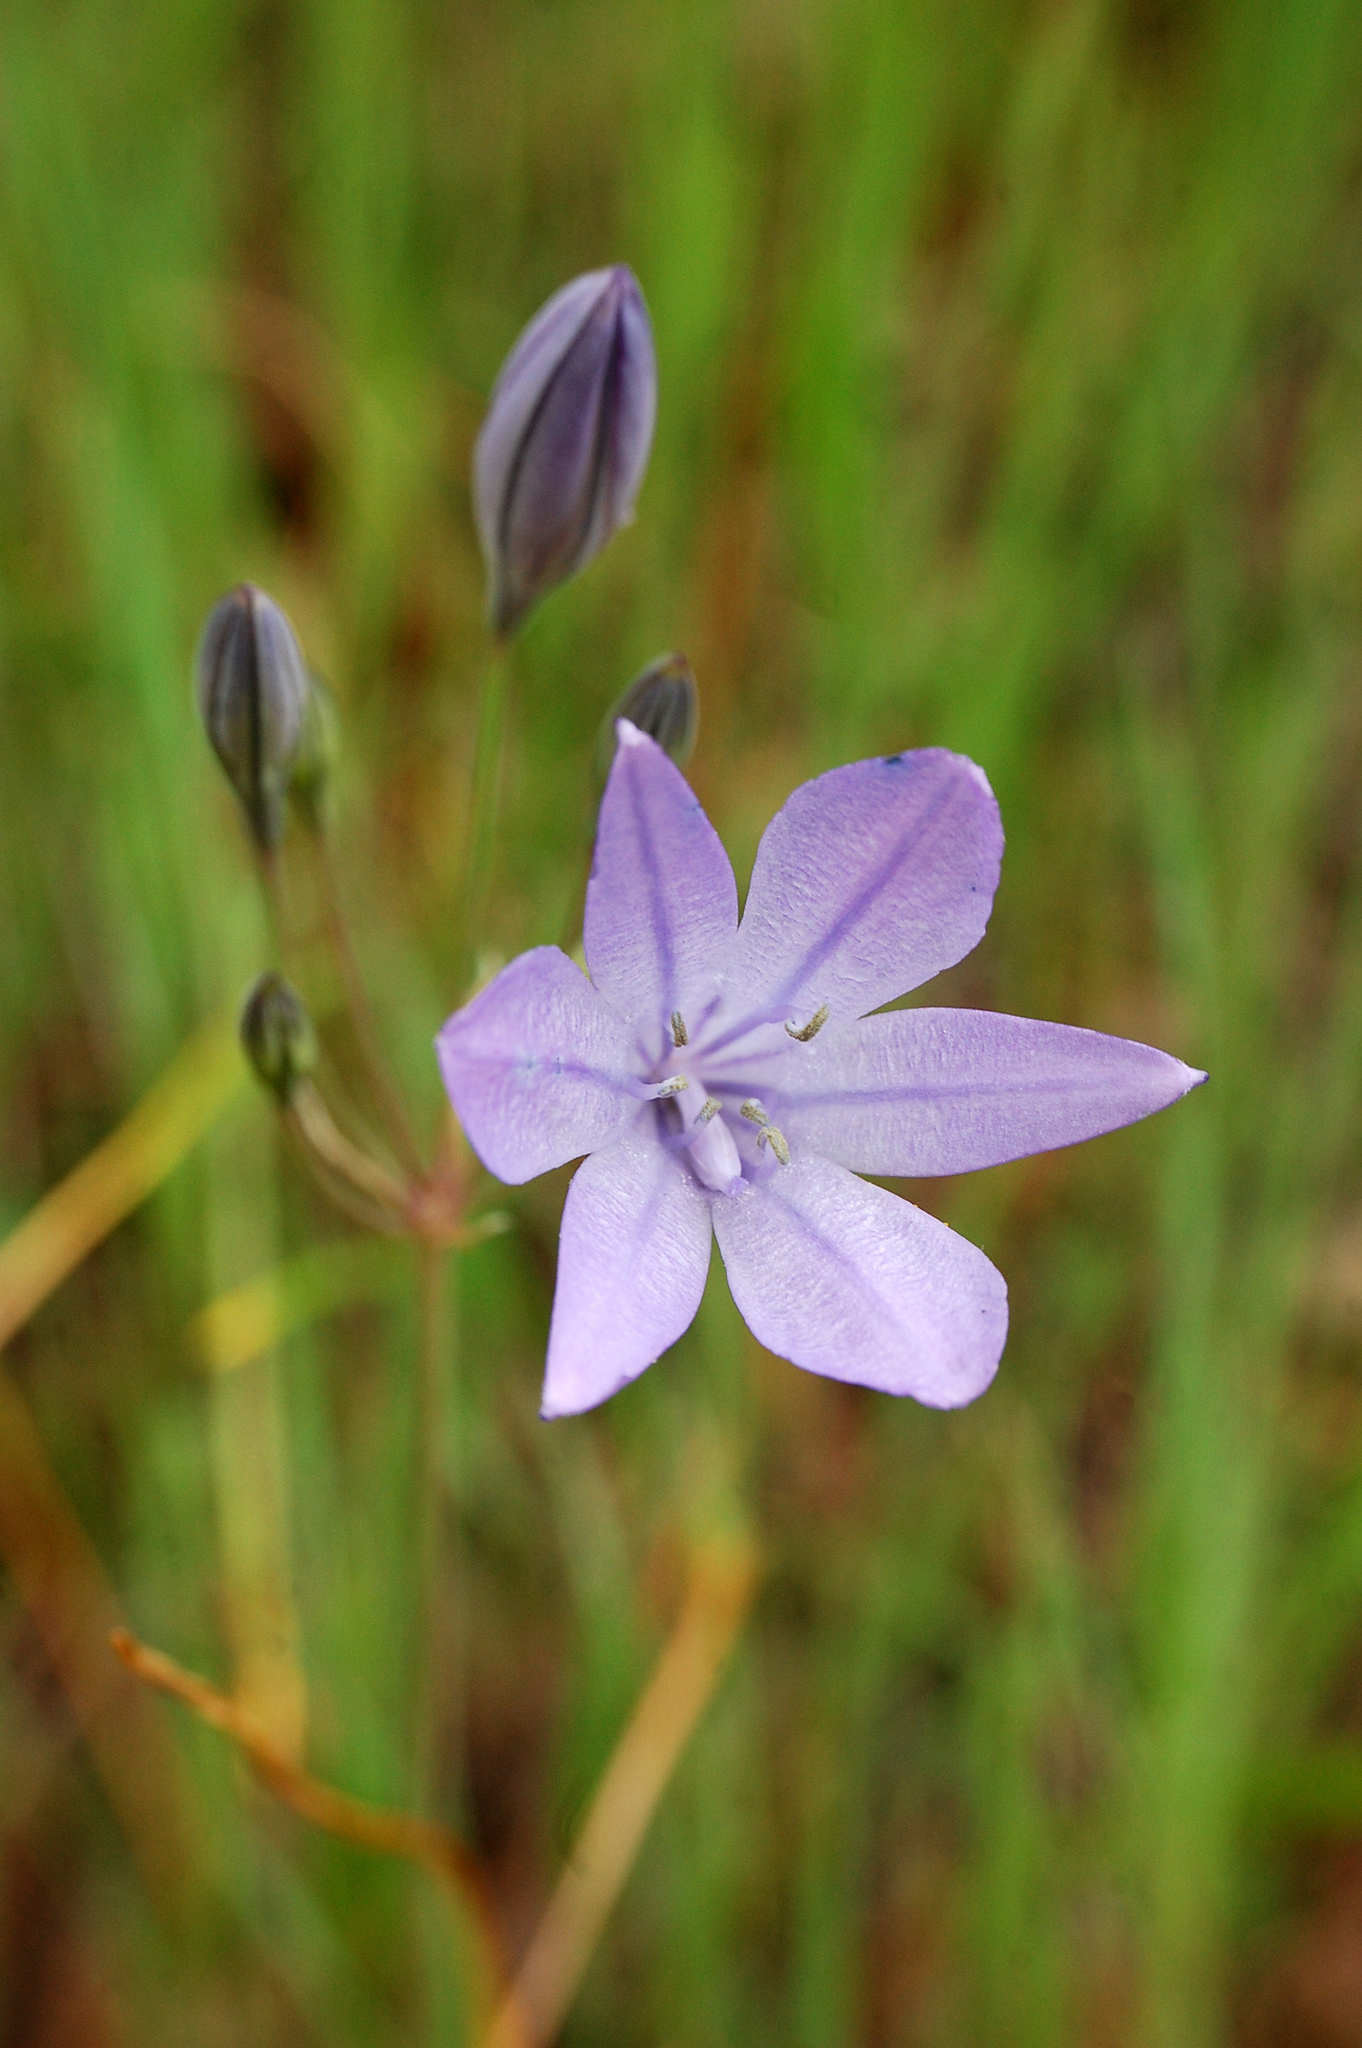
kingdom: Plantae
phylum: Tracheophyta
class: Liliopsida
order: Asparagales
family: Asparagaceae
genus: Triteleia
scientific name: Triteleia laxa
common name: Triplet-lily
